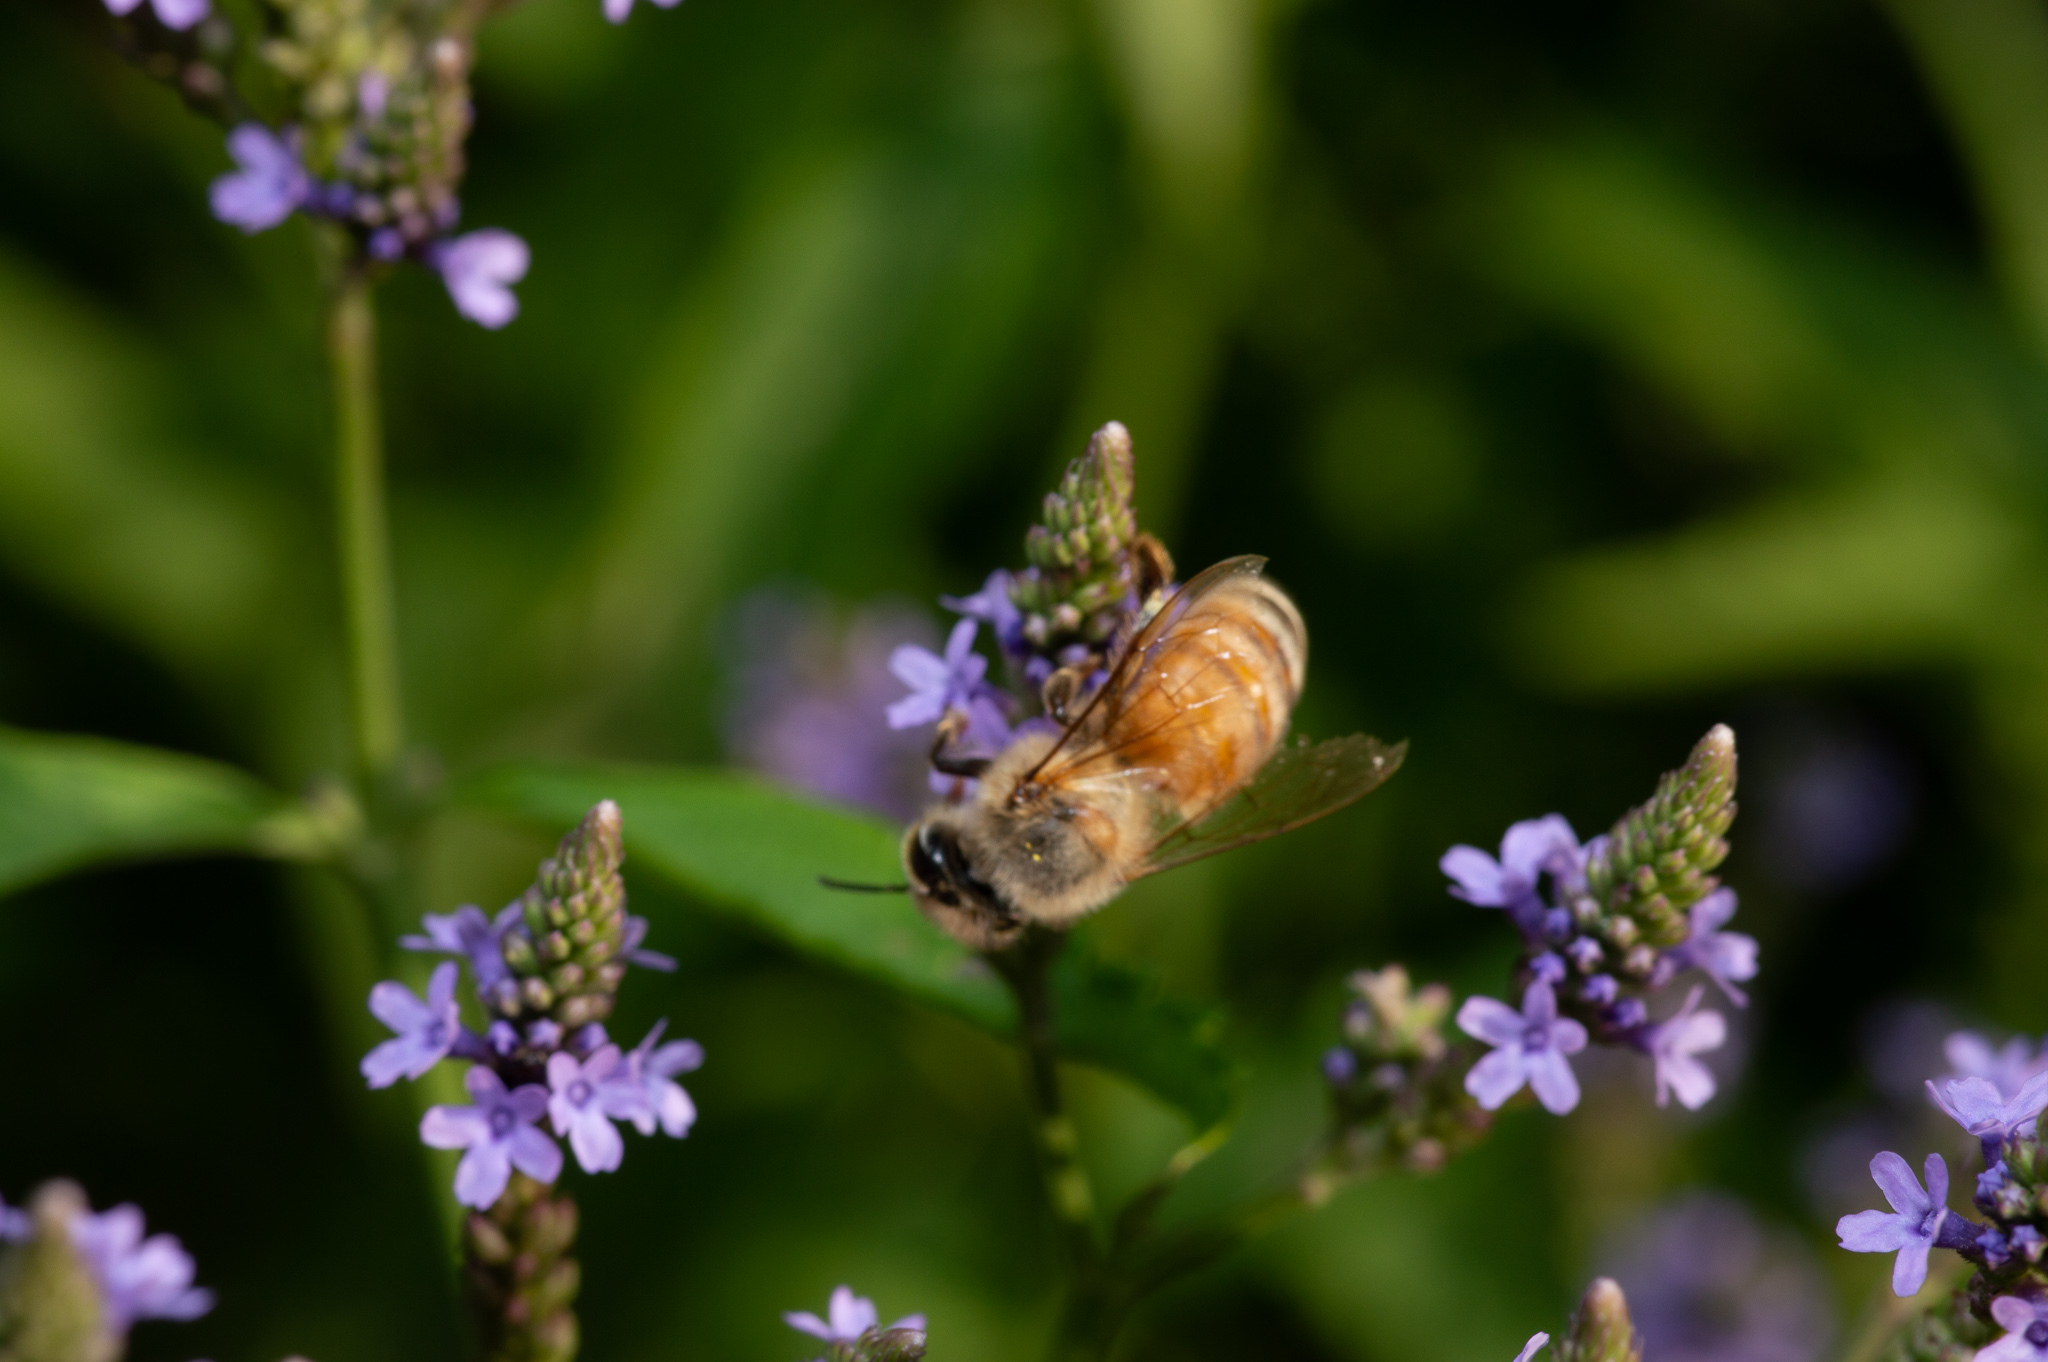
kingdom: Animalia
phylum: Arthropoda
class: Insecta
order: Hymenoptera
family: Apidae
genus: Apis
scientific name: Apis mellifera
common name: Honey bee
